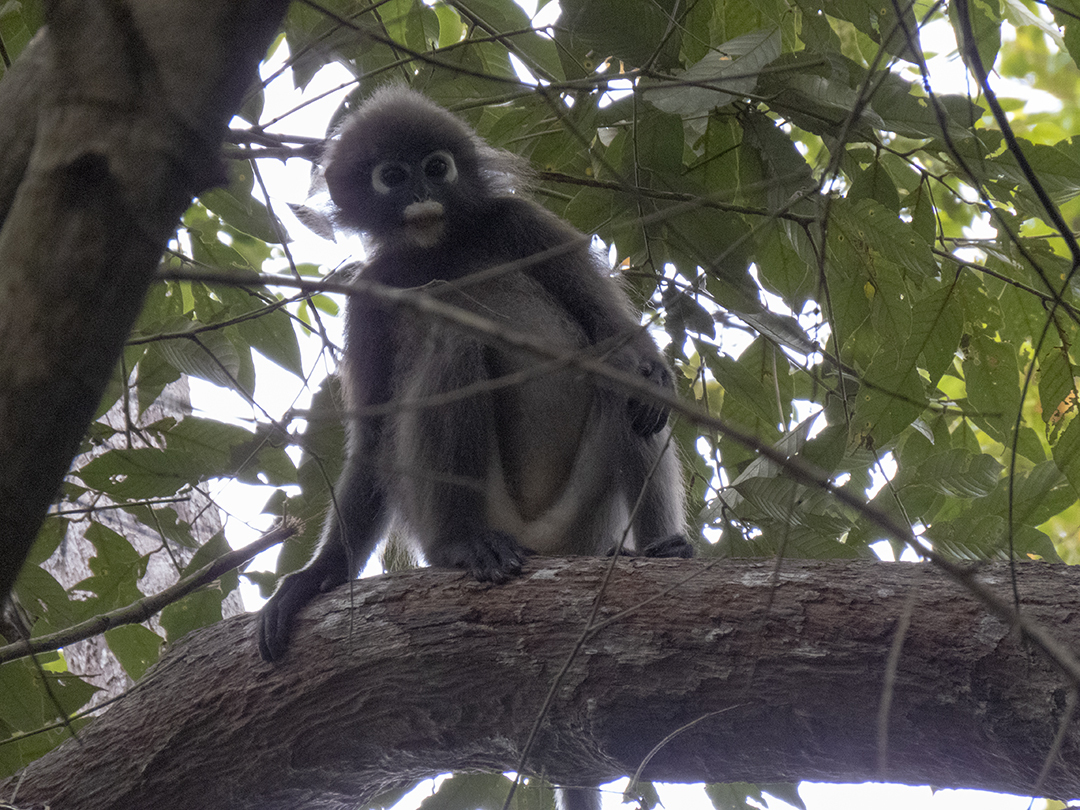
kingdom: Animalia
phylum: Chordata
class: Mammalia
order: Primates
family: Cercopithecidae
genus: Trachypithecus
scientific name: Trachypithecus obscurus
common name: Dusky leaf-monkey
